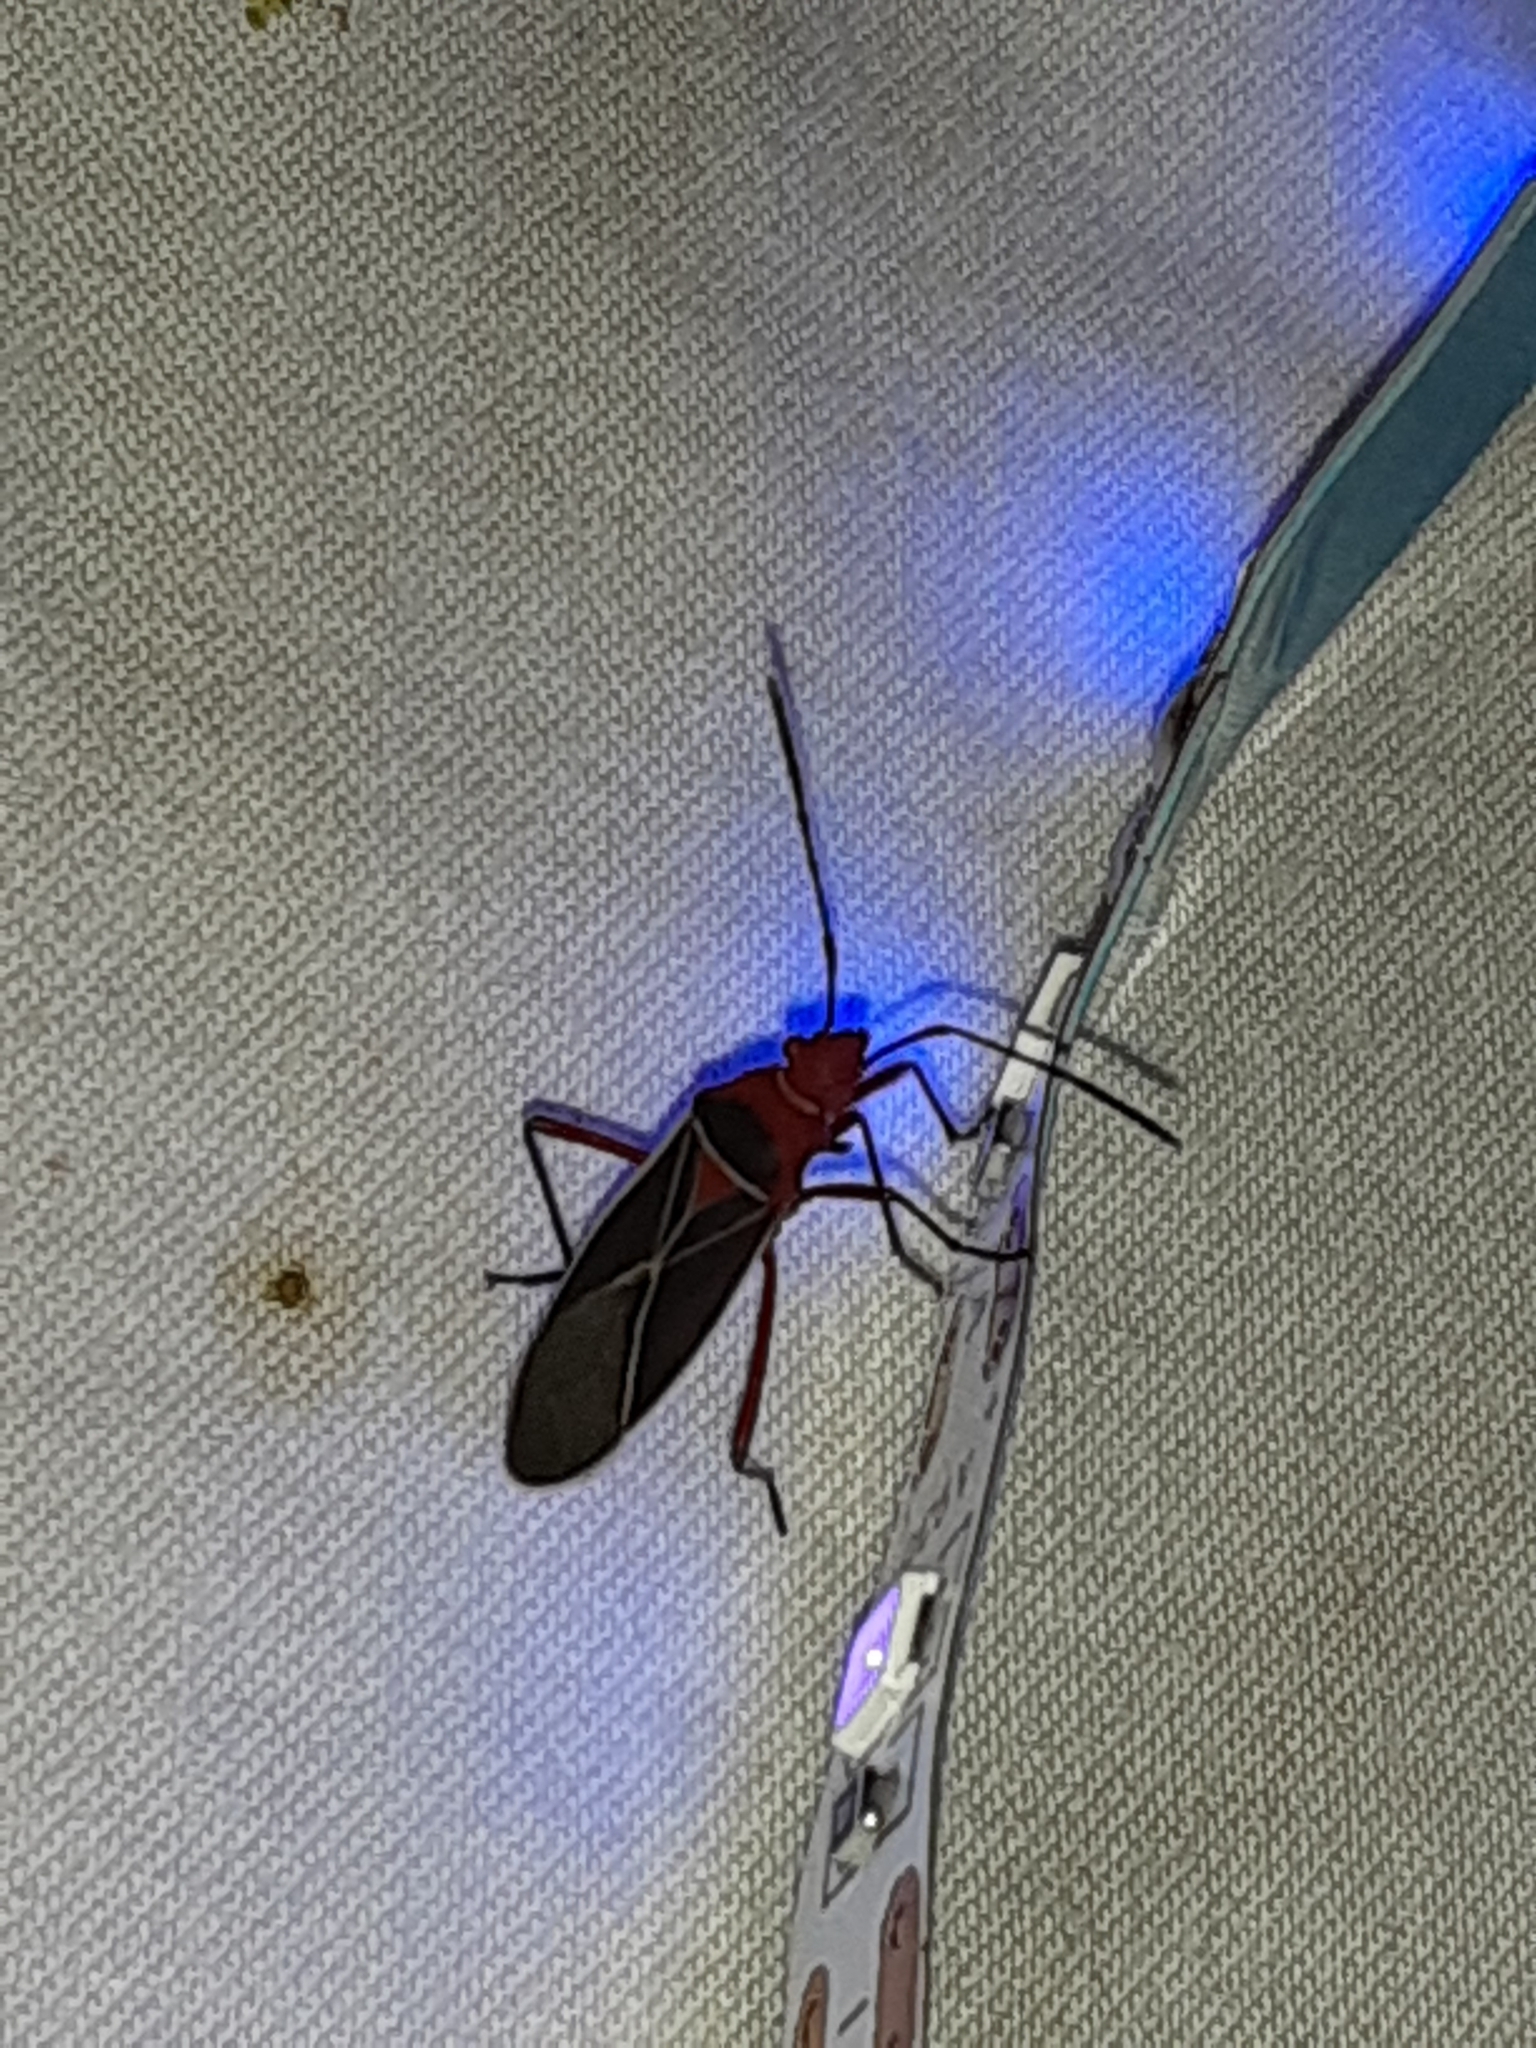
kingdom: Animalia
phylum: Arthropoda
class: Insecta
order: Hemiptera
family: Pyrrhocoridae
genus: Dysdercus
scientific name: Dysdercus suturellus
